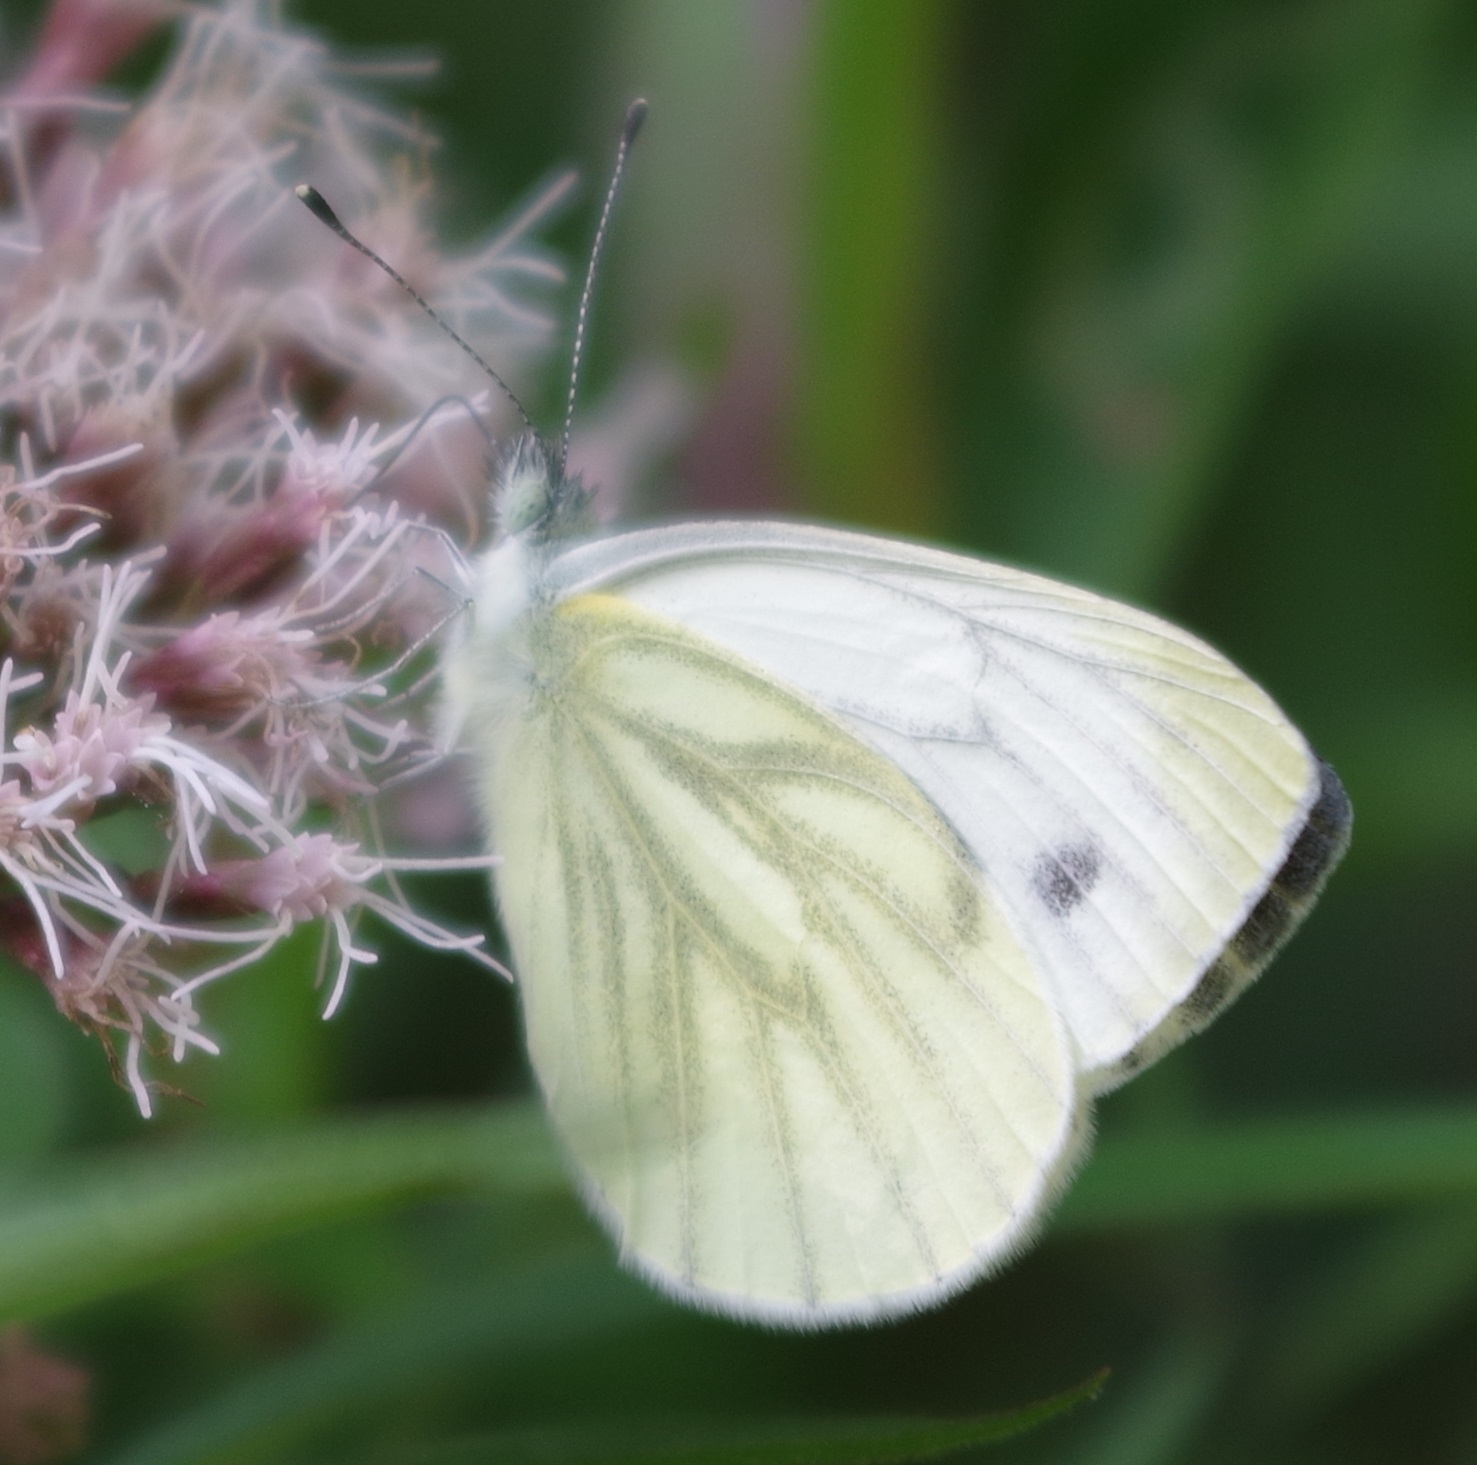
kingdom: Animalia
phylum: Arthropoda
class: Insecta
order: Lepidoptera
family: Pieridae
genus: Pieris
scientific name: Pieris napi
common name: Green-veined white
